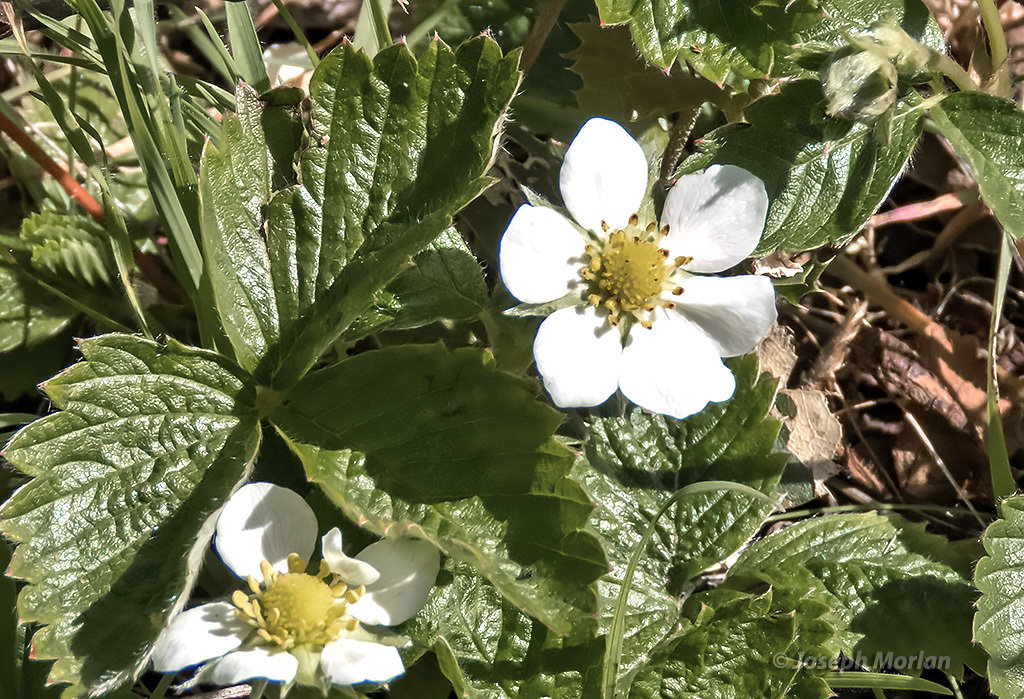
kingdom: Plantae
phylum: Tracheophyta
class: Magnoliopsida
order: Rosales
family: Rosaceae
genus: Fragaria
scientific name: Fragaria vesca
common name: Wild strawberry
